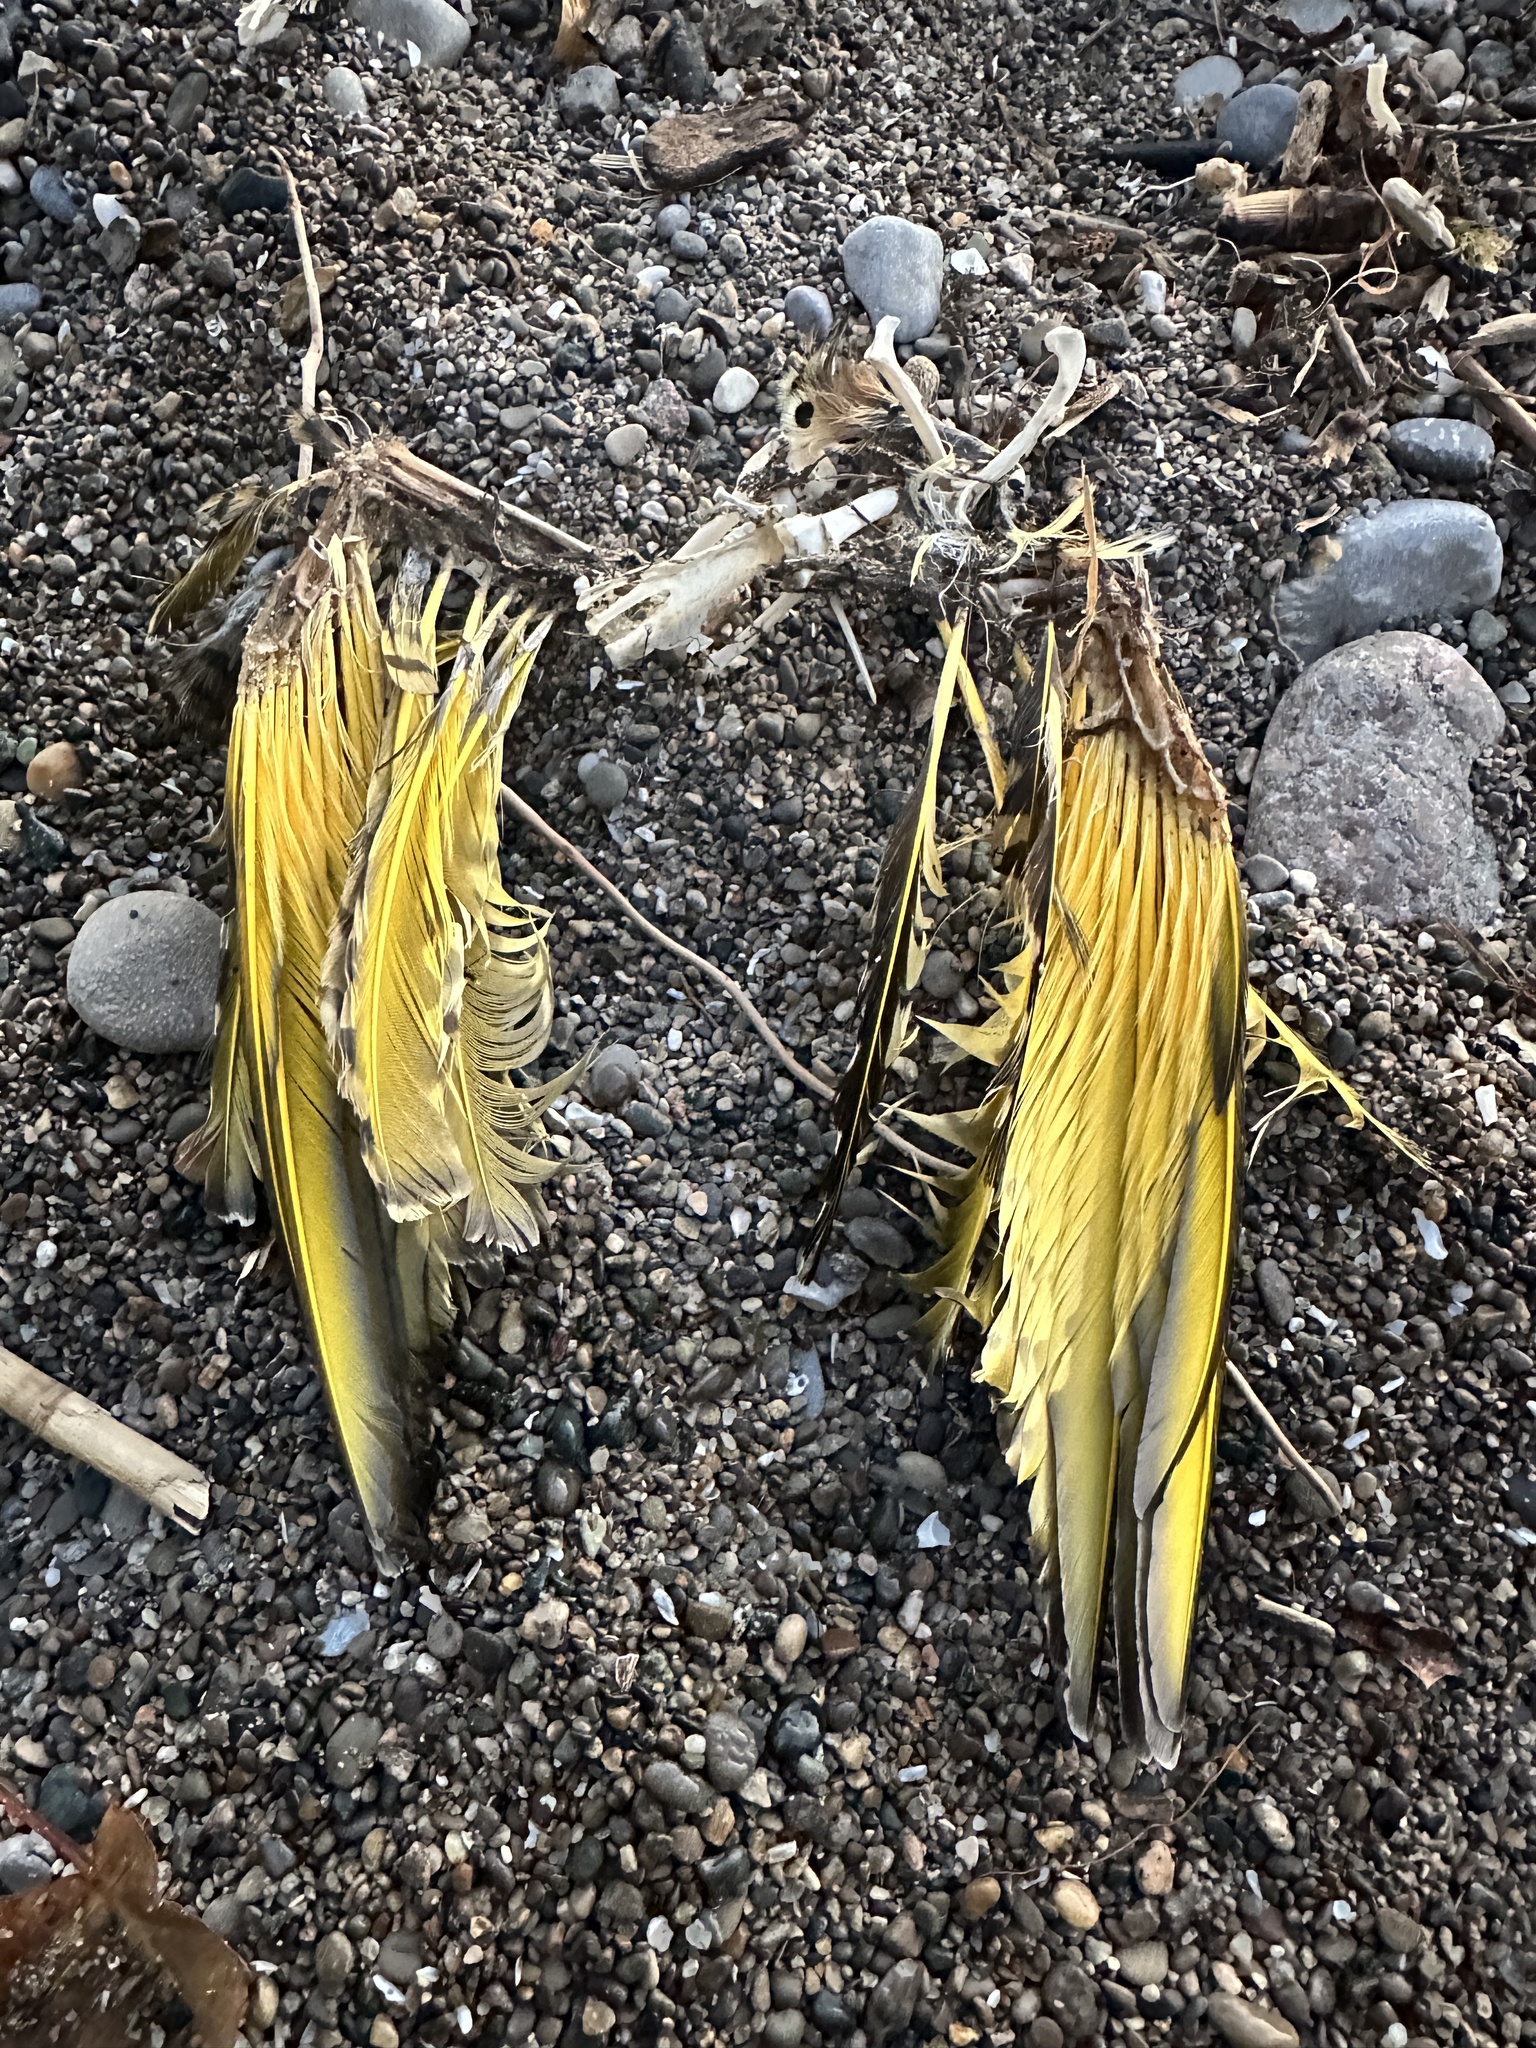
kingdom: Animalia
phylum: Chordata
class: Aves
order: Piciformes
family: Picidae
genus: Colaptes
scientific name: Colaptes auratus
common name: Northern flicker
